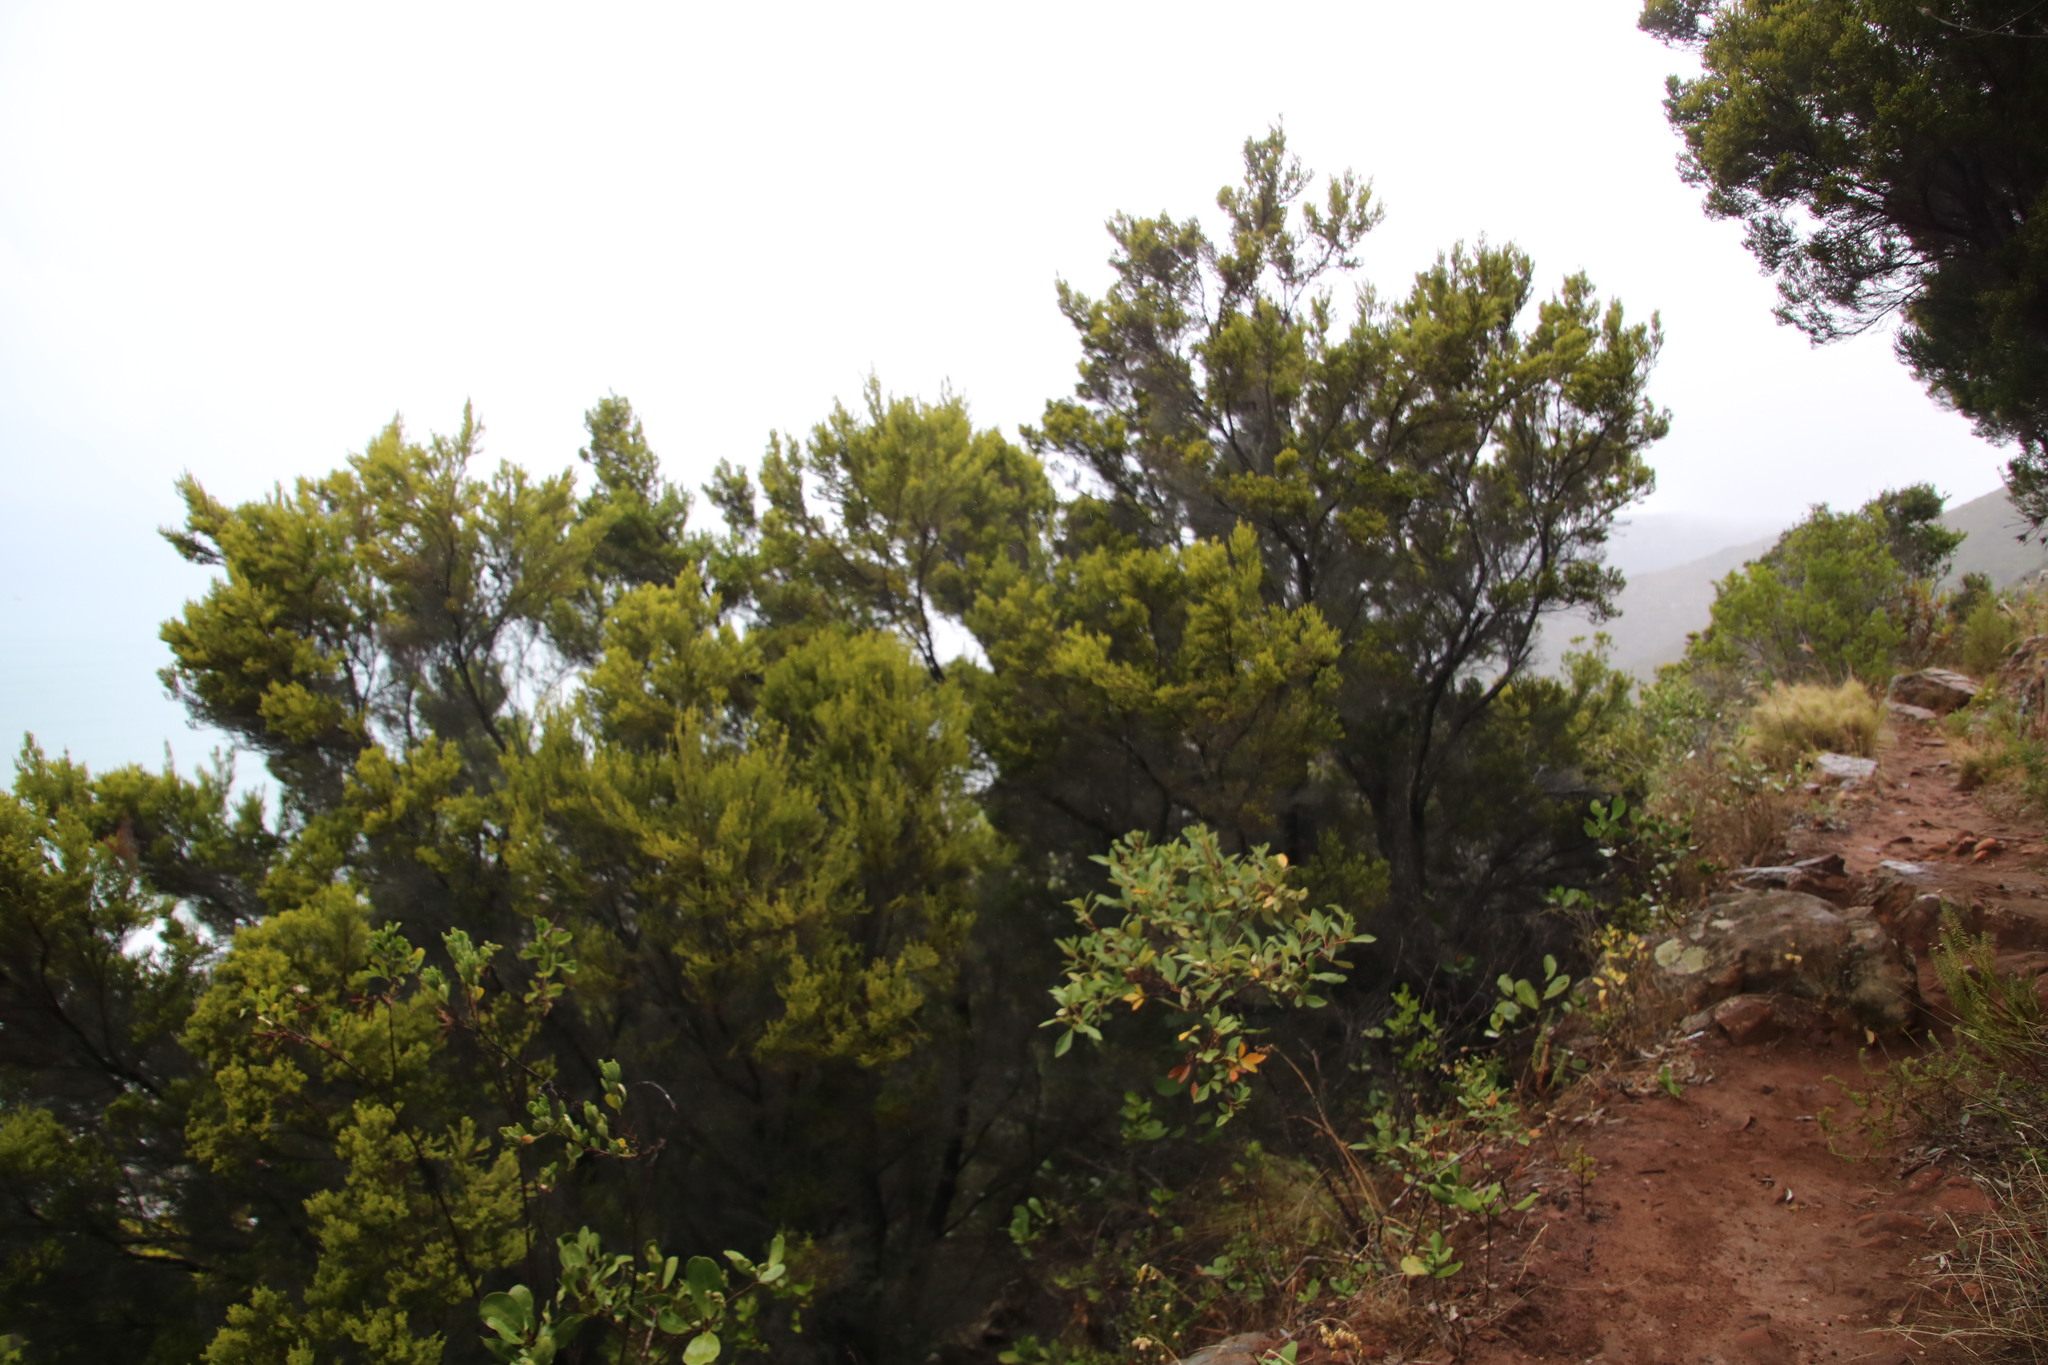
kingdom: Plantae
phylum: Tracheophyta
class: Magnoliopsida
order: Ericales
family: Ericaceae
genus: Erica
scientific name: Erica tristis
